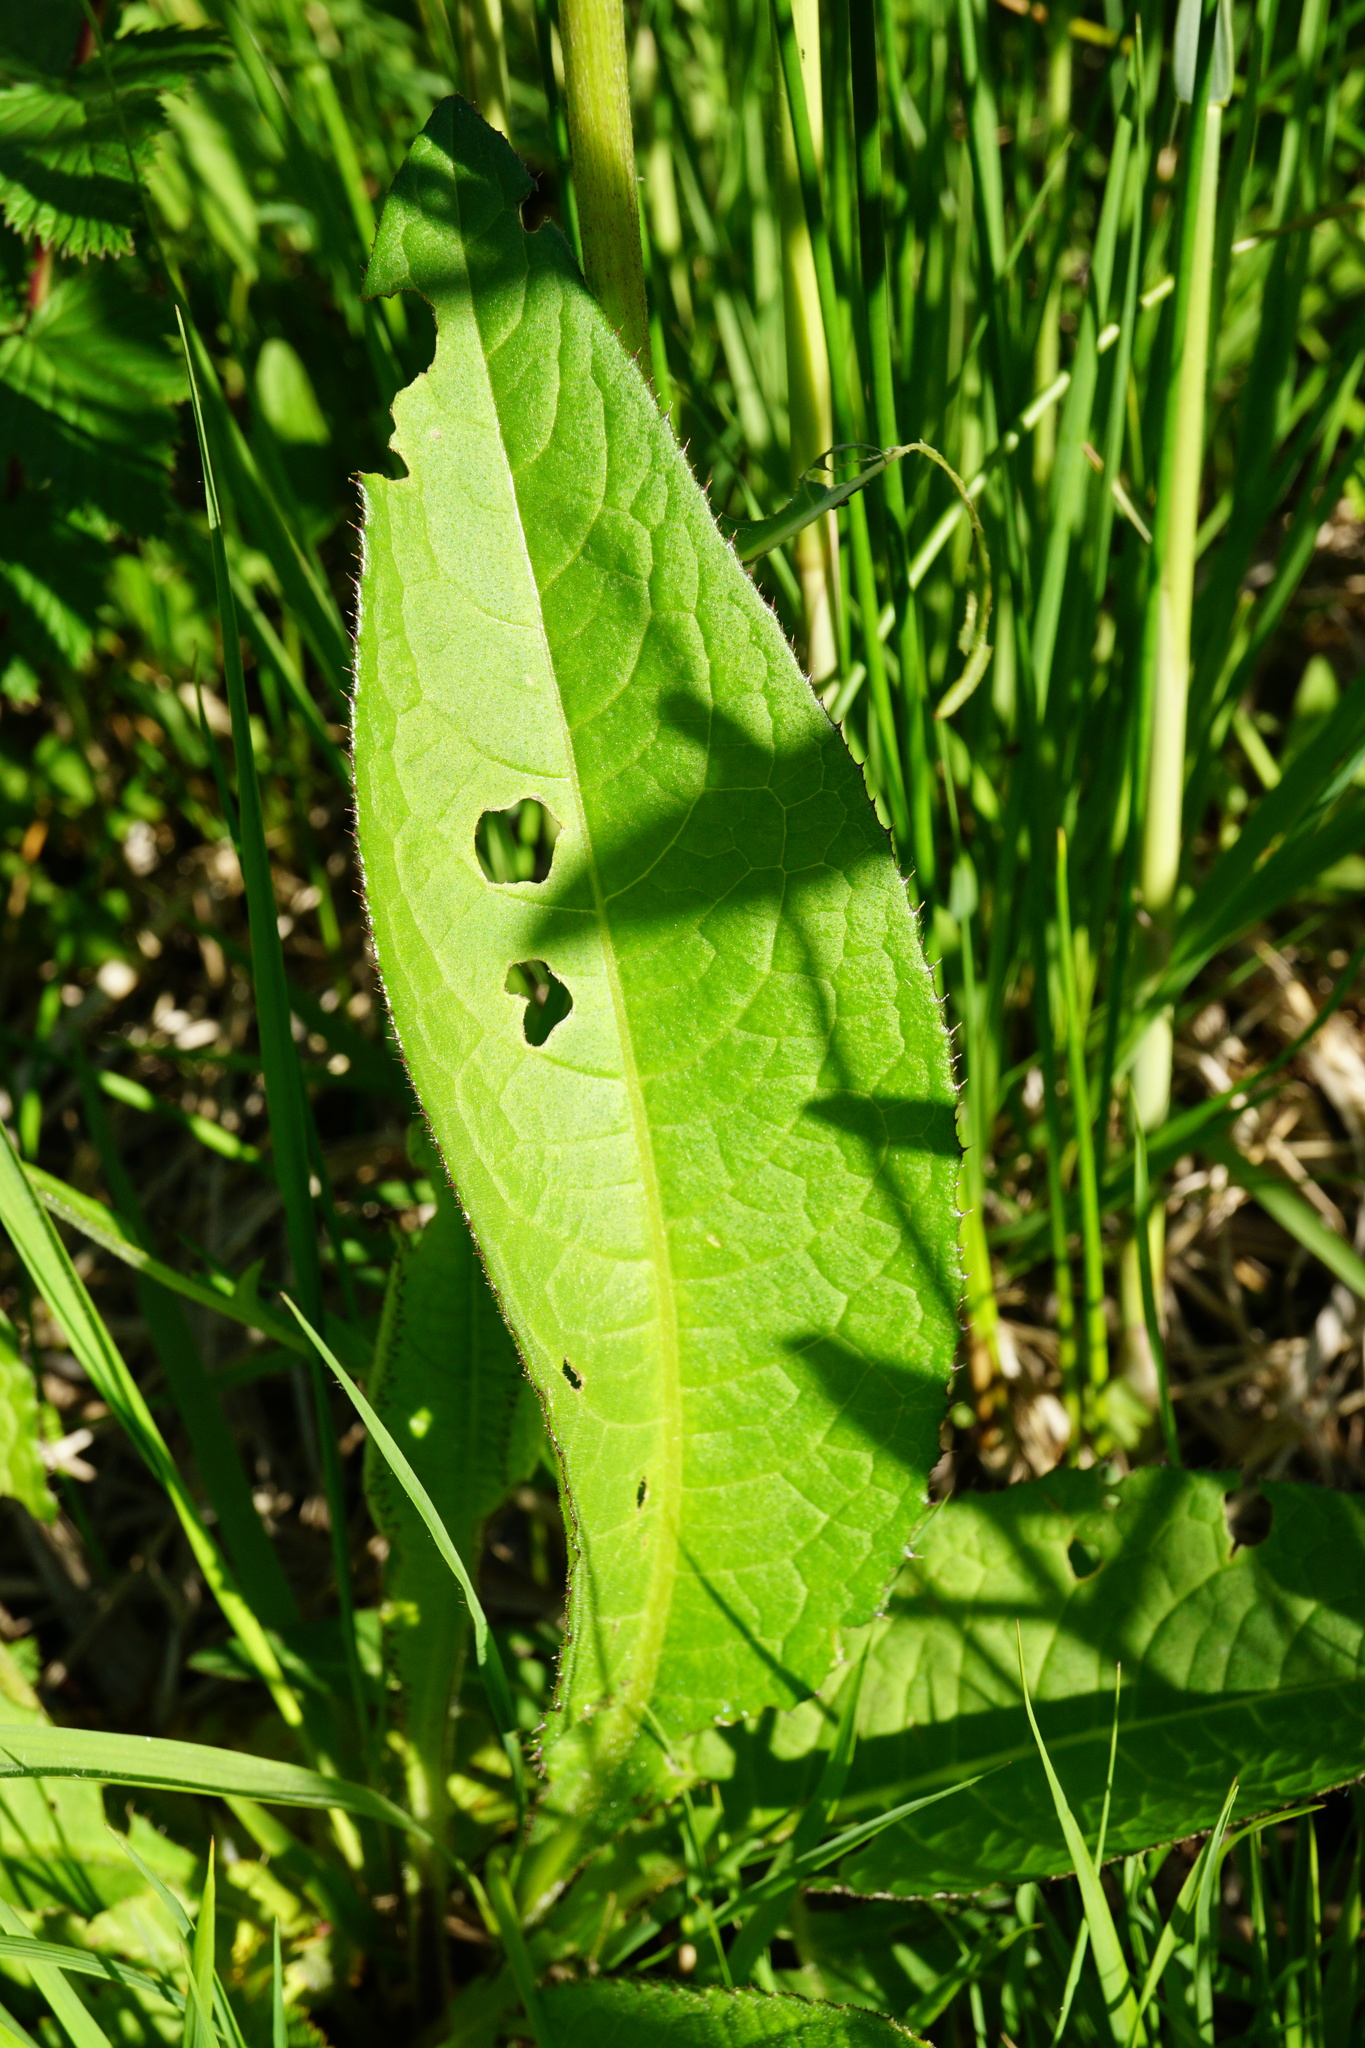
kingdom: Plantae
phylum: Tracheophyta
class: Magnoliopsida
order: Asterales
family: Asteraceae
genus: Cirsium
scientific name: Cirsium rivulare
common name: Brook thistle
